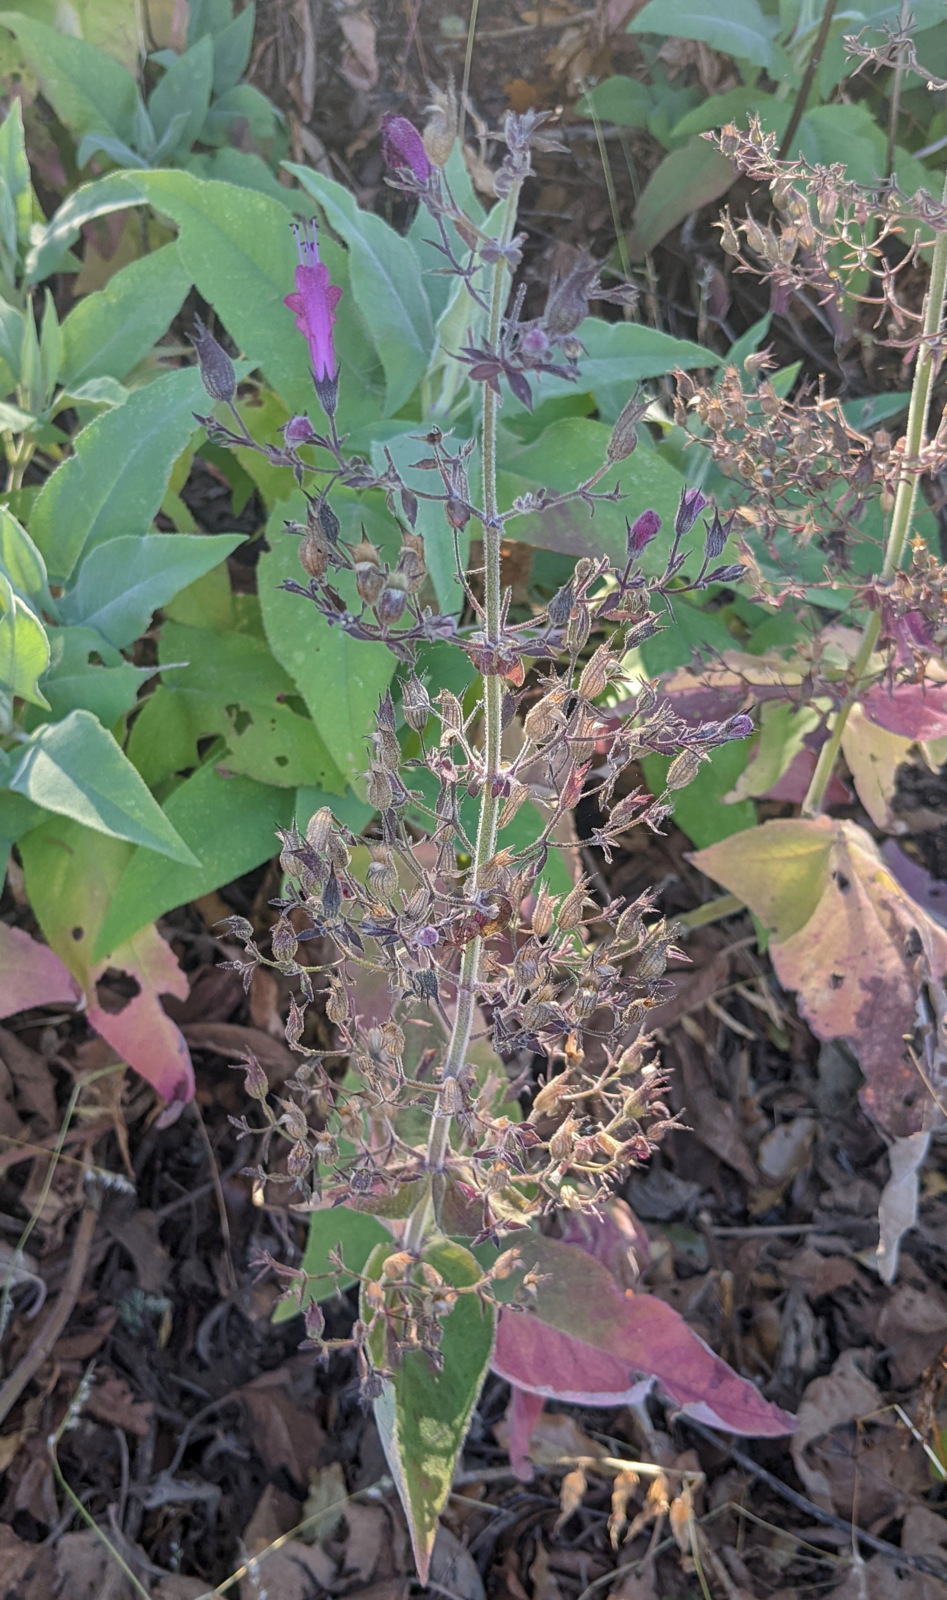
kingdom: Plantae
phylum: Tracheophyta
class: Magnoliopsida
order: Lamiales
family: Lamiaceae
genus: Lepechinia
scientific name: Lepechinia hastata
